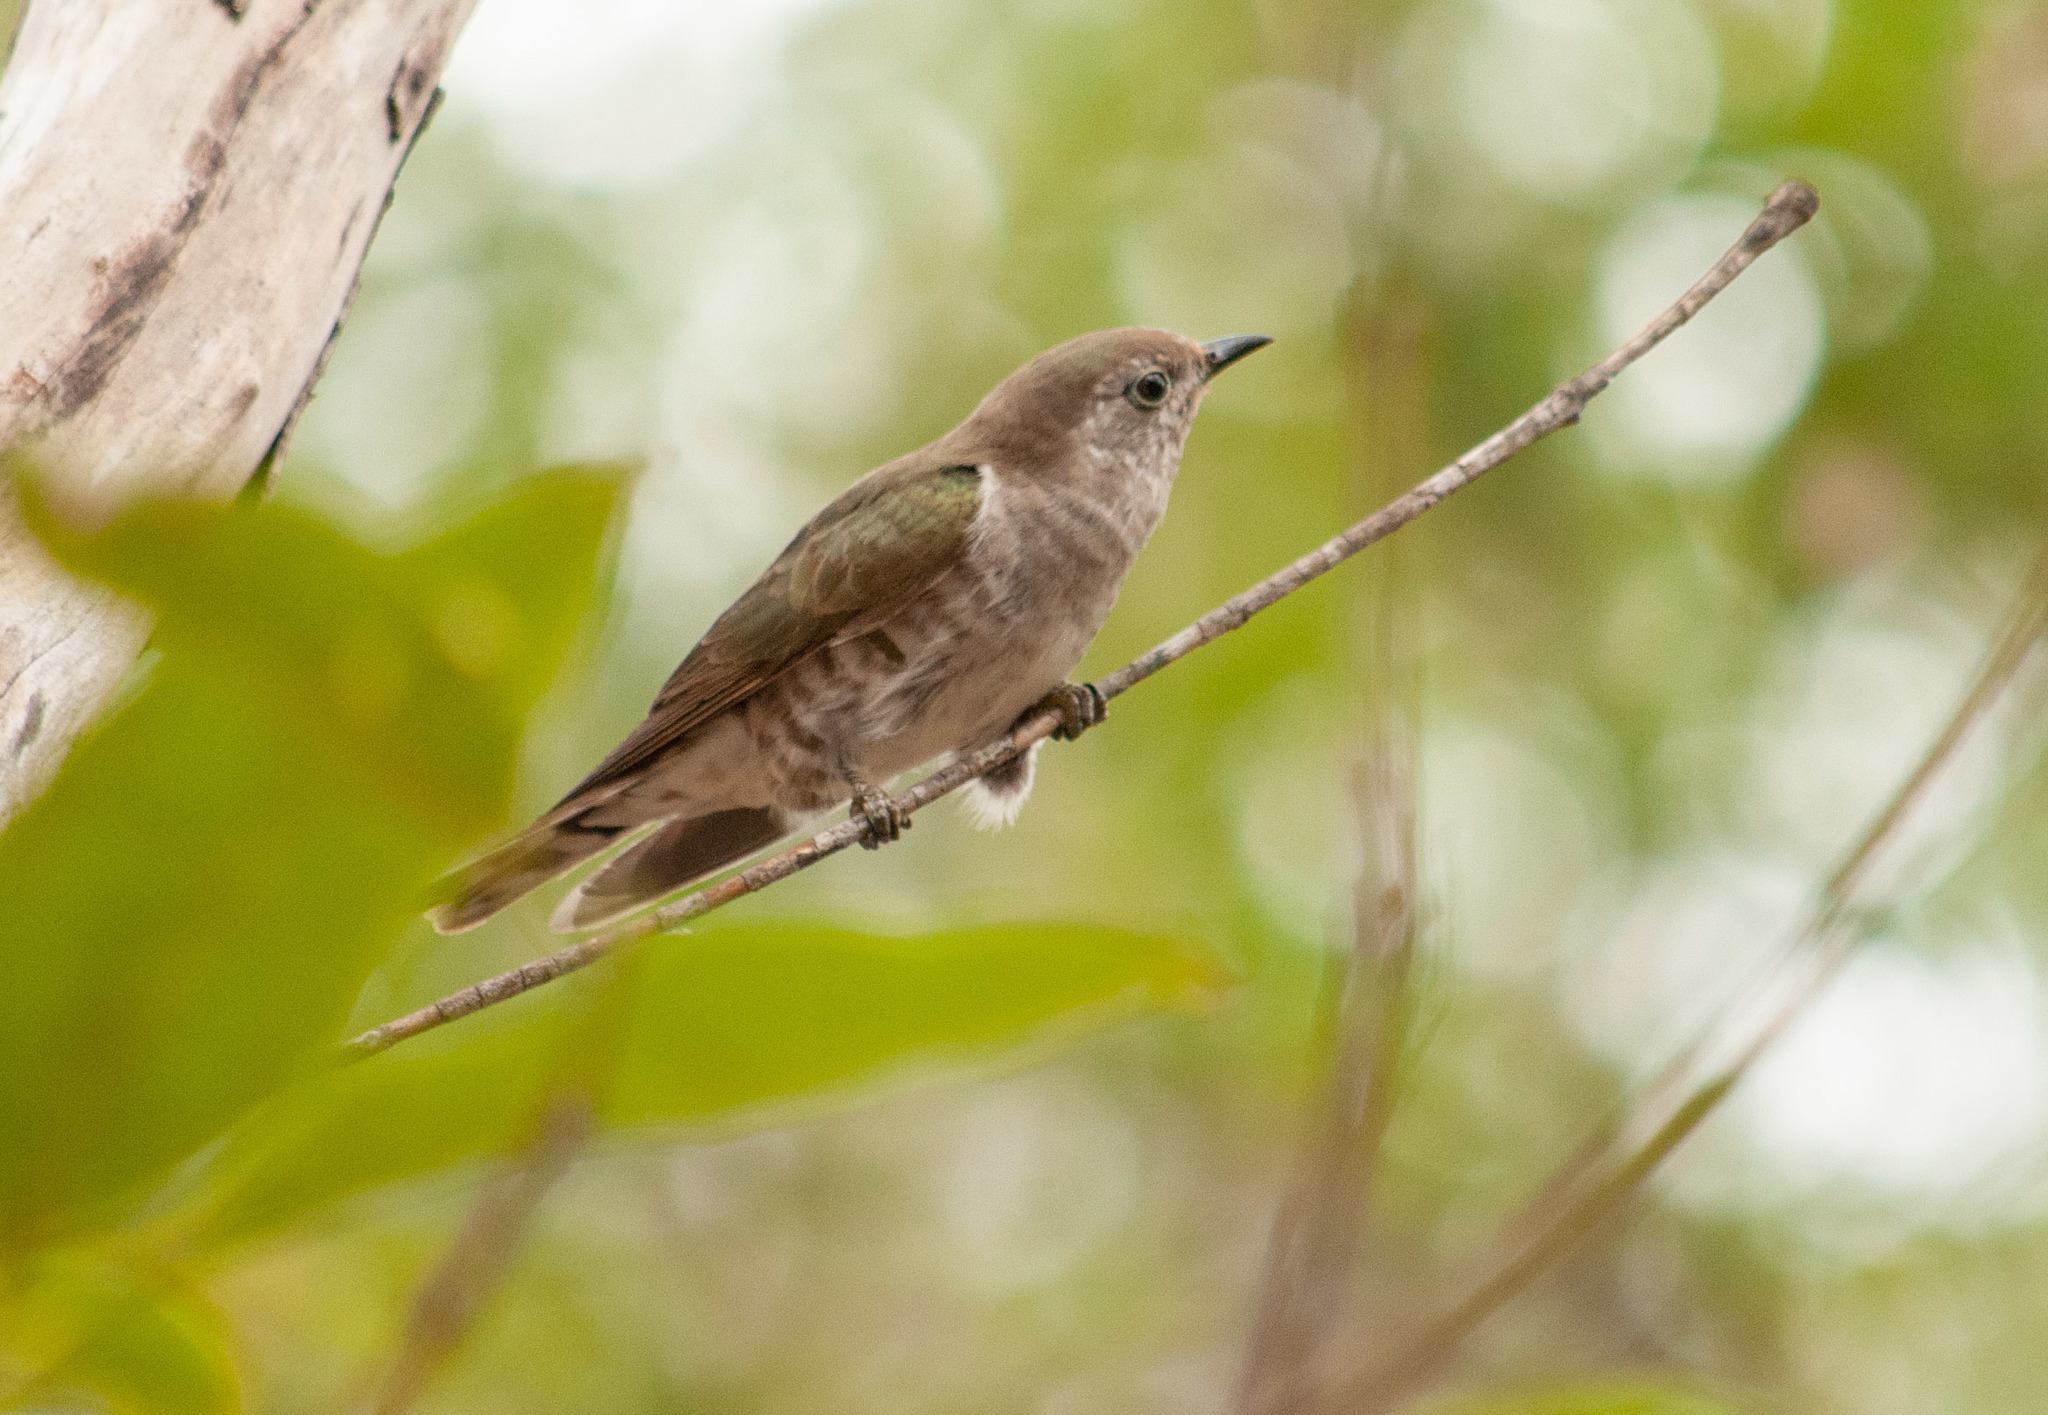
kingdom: Animalia
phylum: Chordata
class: Aves
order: Cuculiformes
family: Cuculidae
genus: Chrysococcyx
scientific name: Chrysococcyx lucidus
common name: Shining bronze cuckoo
